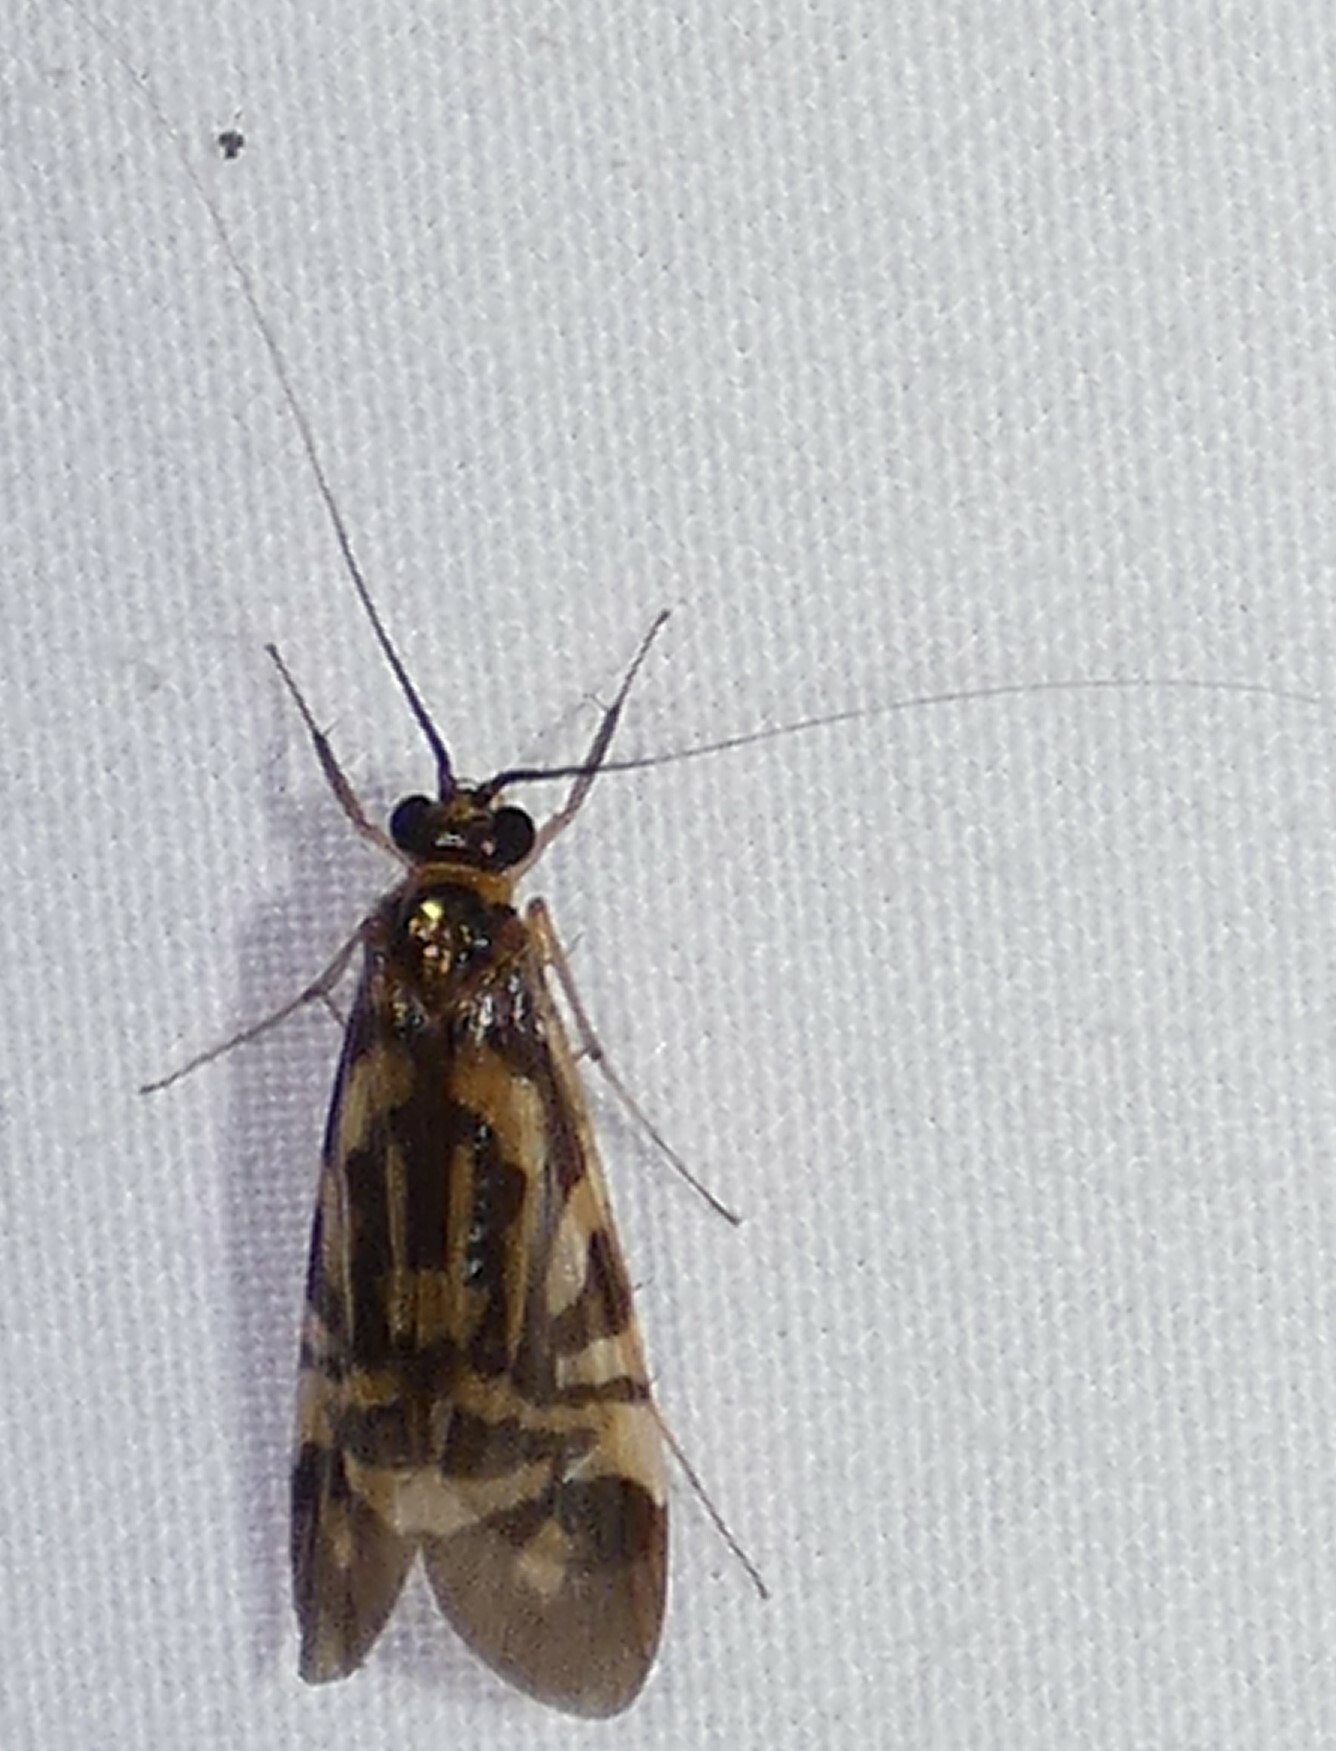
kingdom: Animalia
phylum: Arthropoda
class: Insecta
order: Trichoptera
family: Hydropsychidae
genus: Macrostemum
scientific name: Macrostemum carolina
